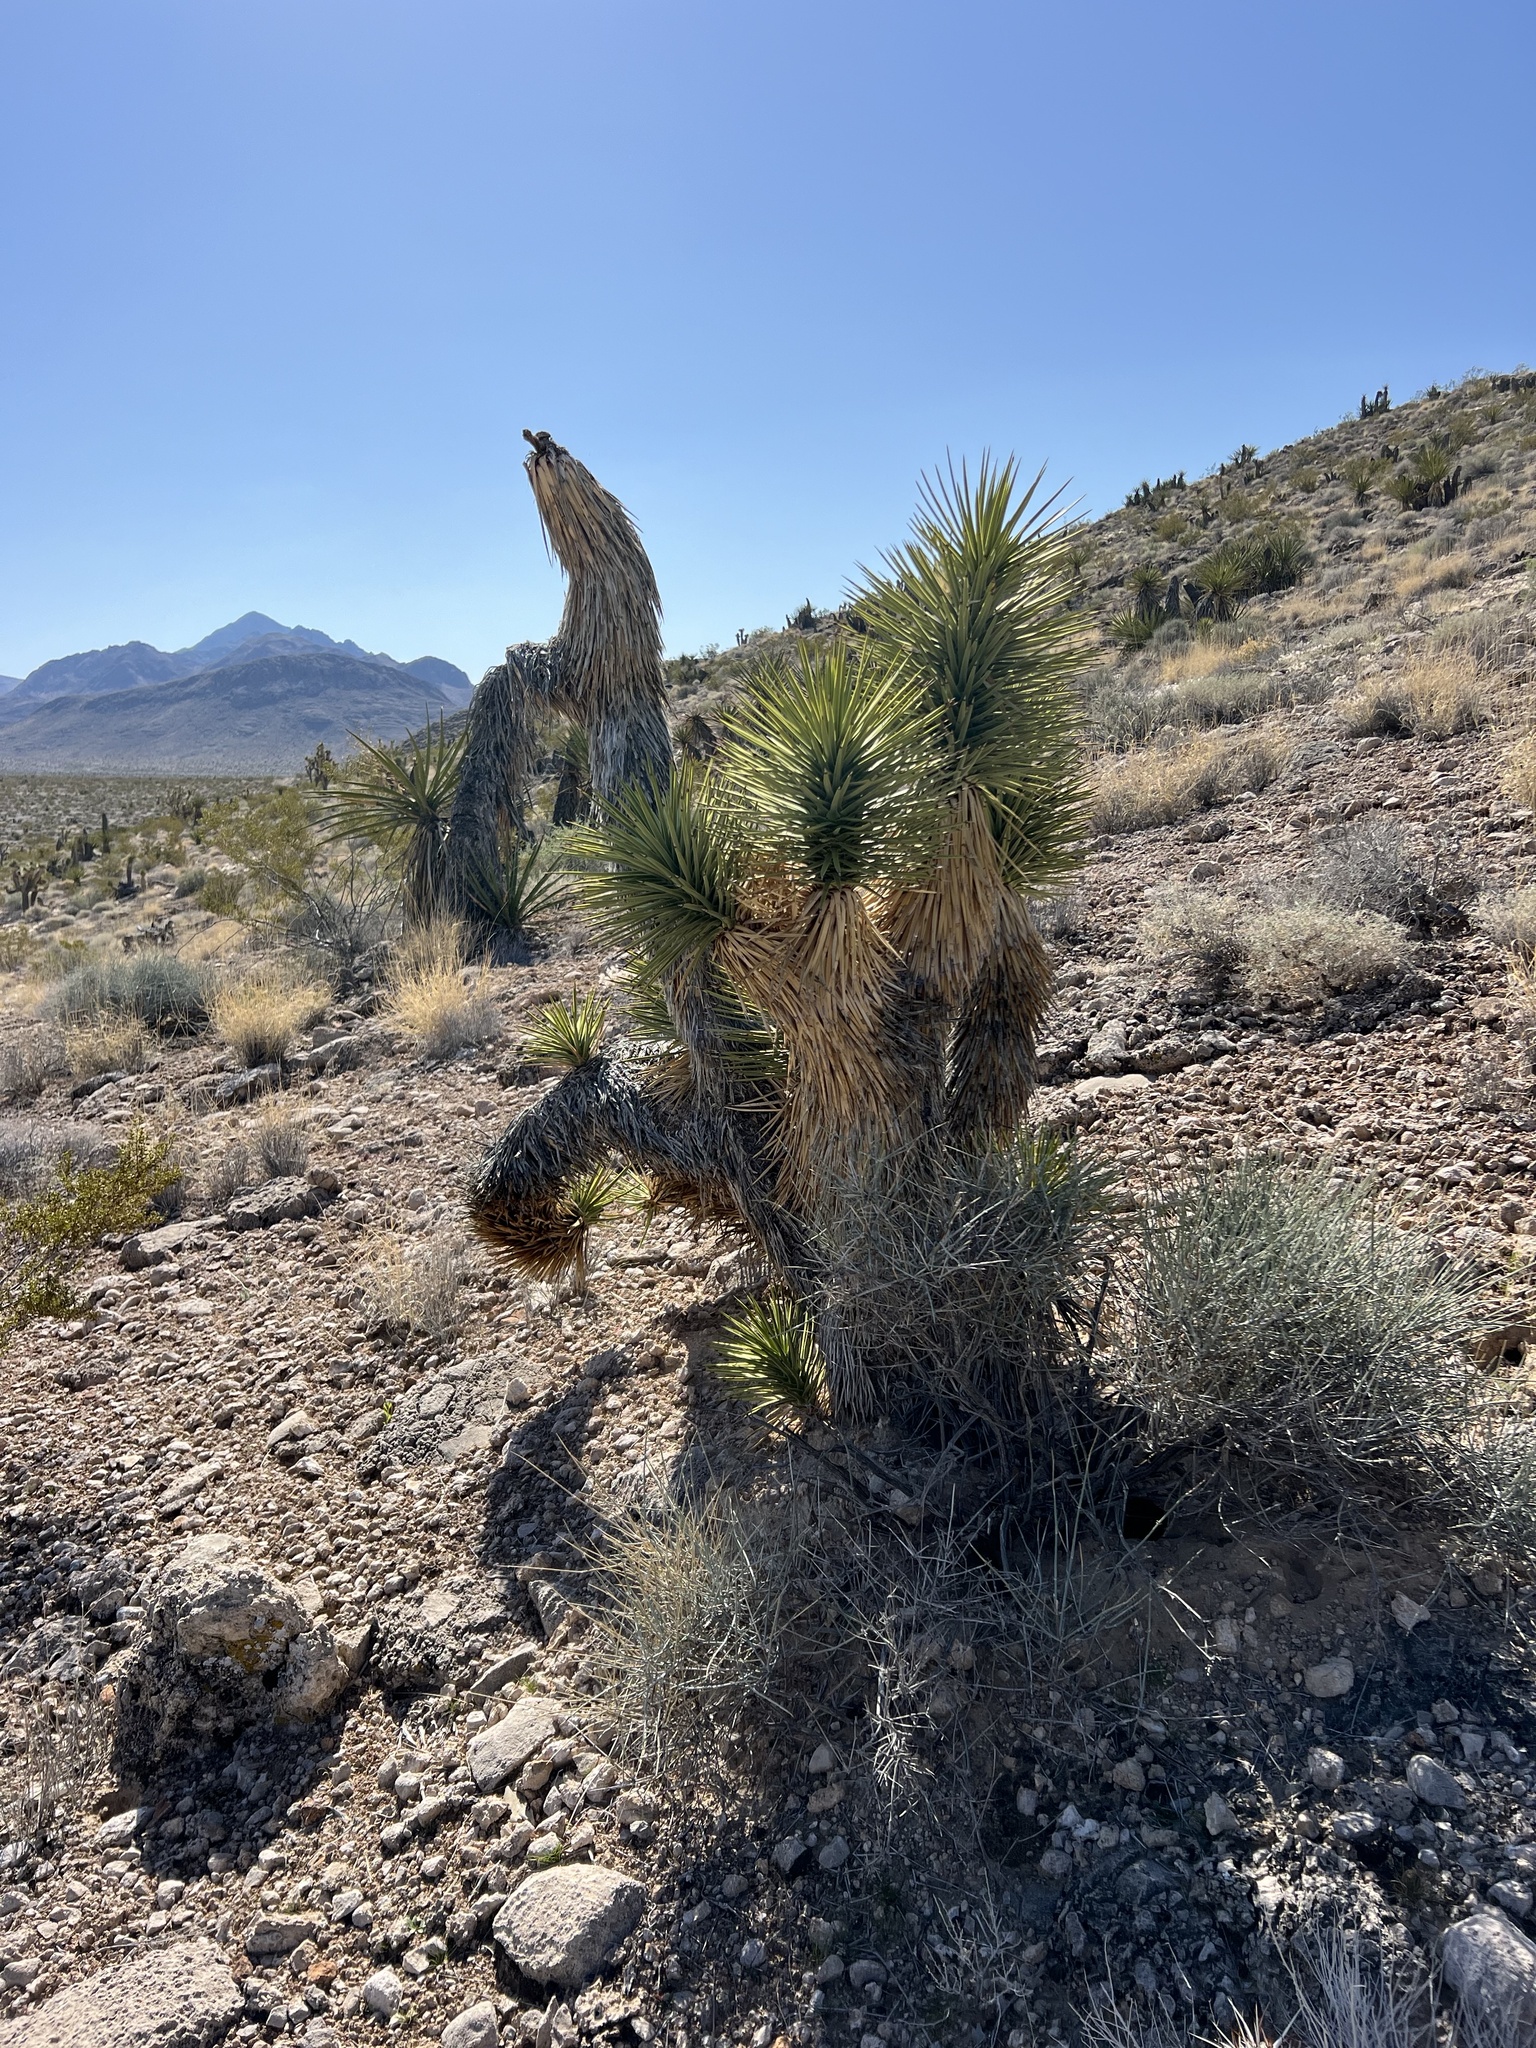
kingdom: Plantae
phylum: Tracheophyta
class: Liliopsida
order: Asparagales
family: Asparagaceae
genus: Yucca
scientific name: Yucca brevifolia
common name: Joshua tree
